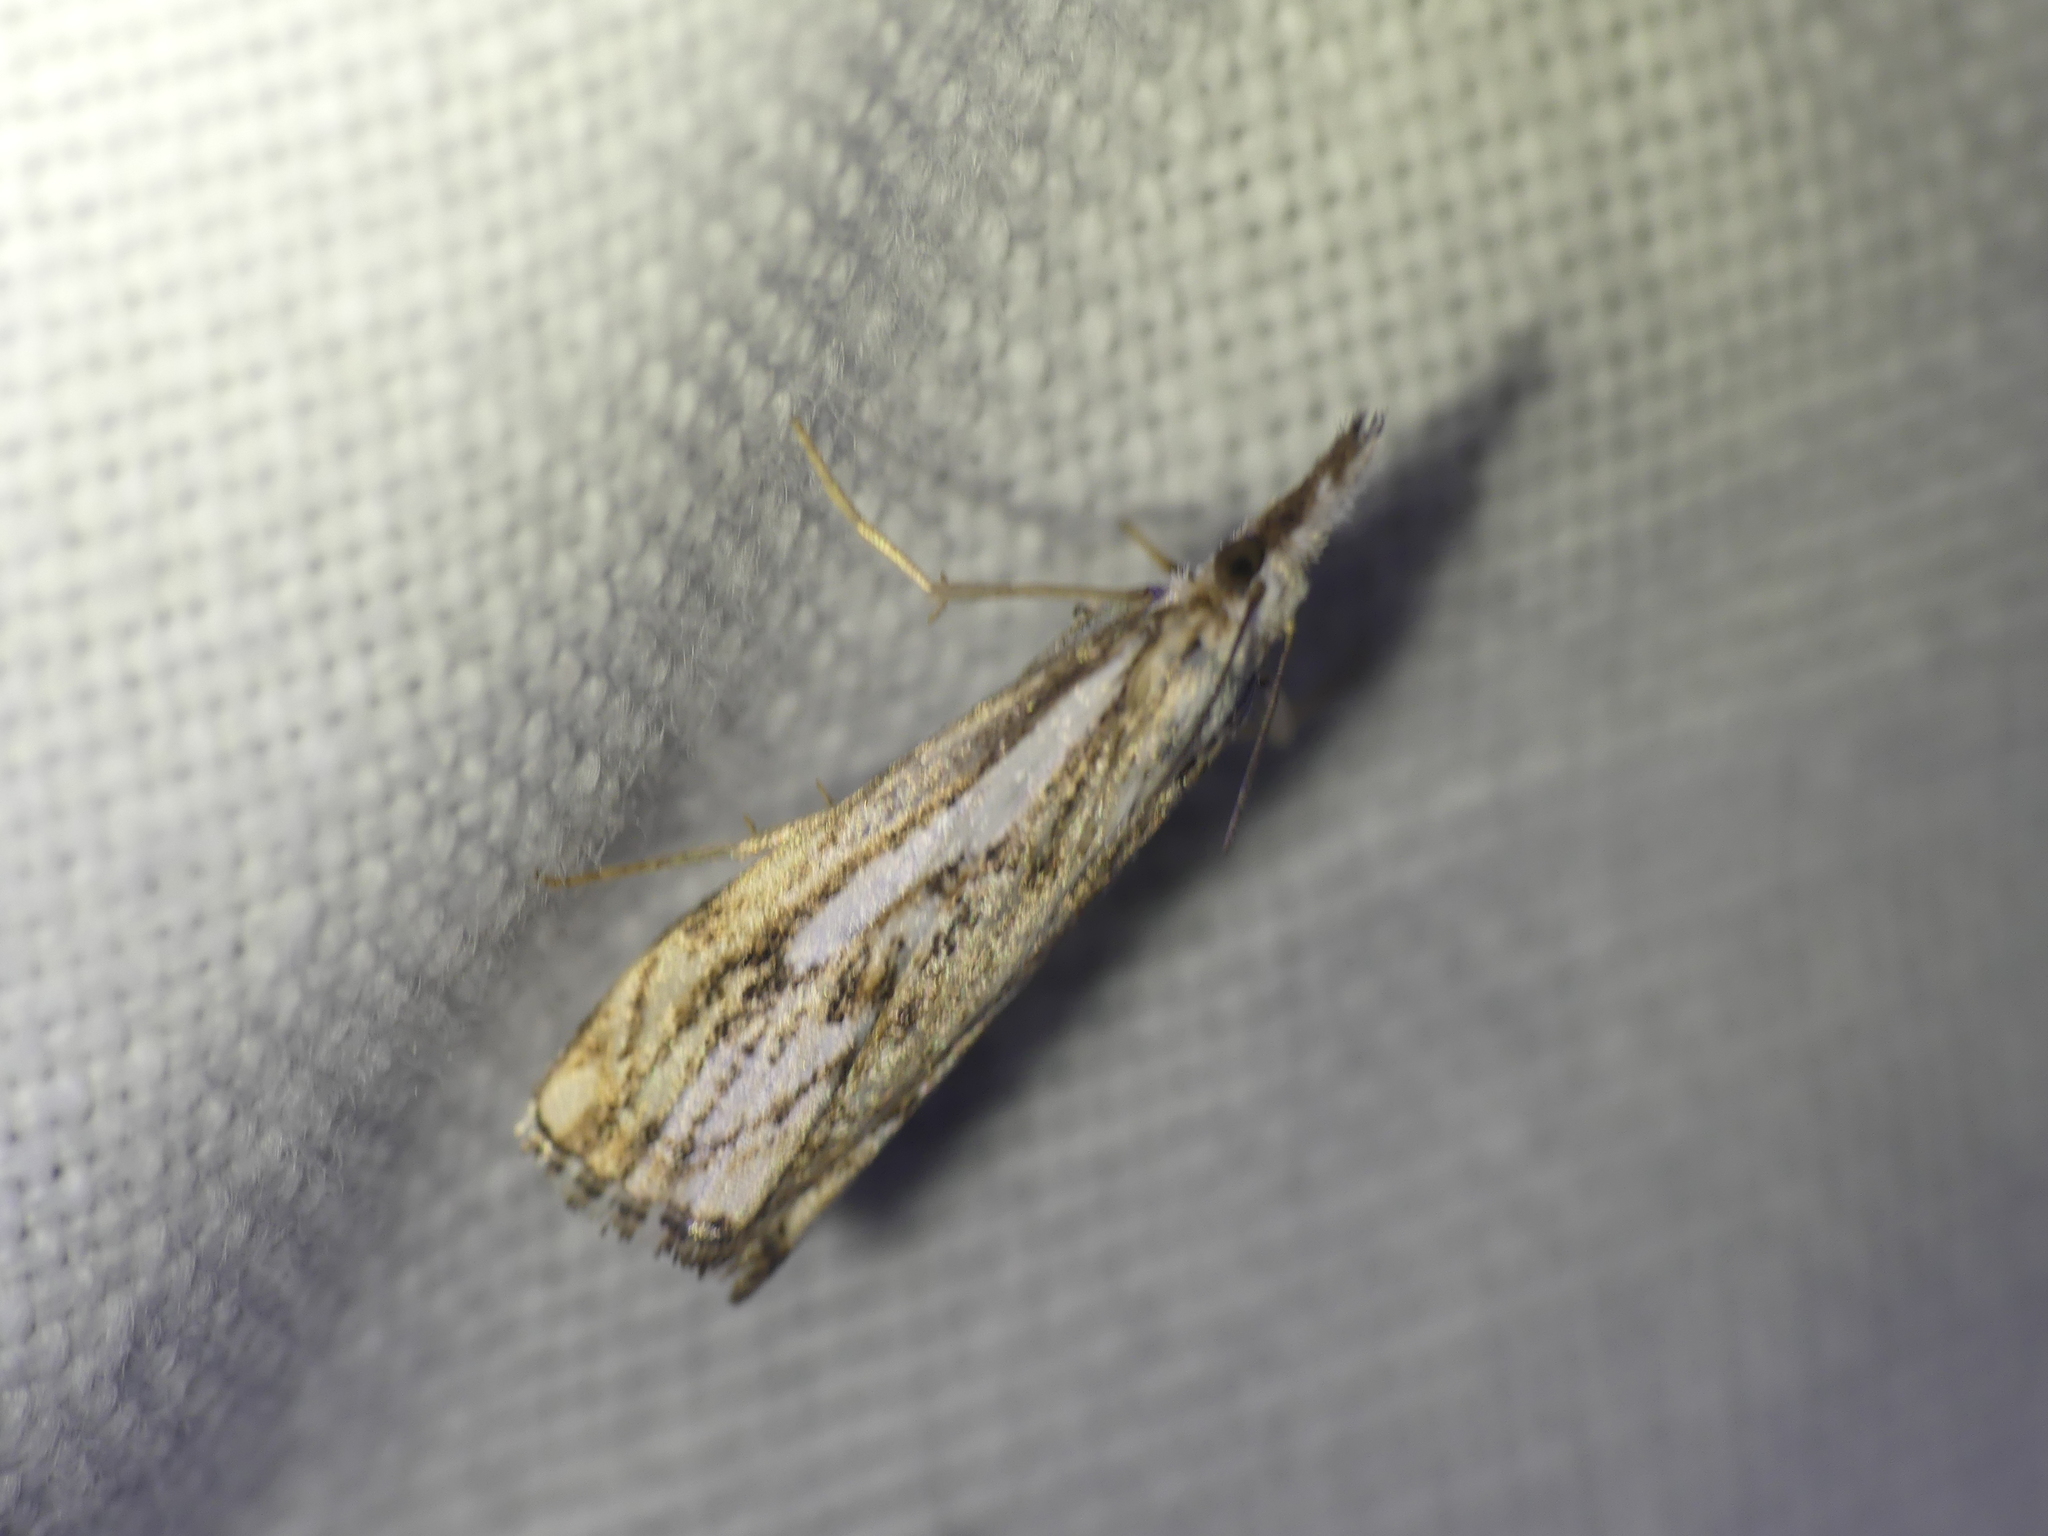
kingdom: Animalia
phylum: Arthropoda
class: Insecta
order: Lepidoptera
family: Crambidae
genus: Catoptria
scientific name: Catoptria falsella
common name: Chequered grass-veneer
